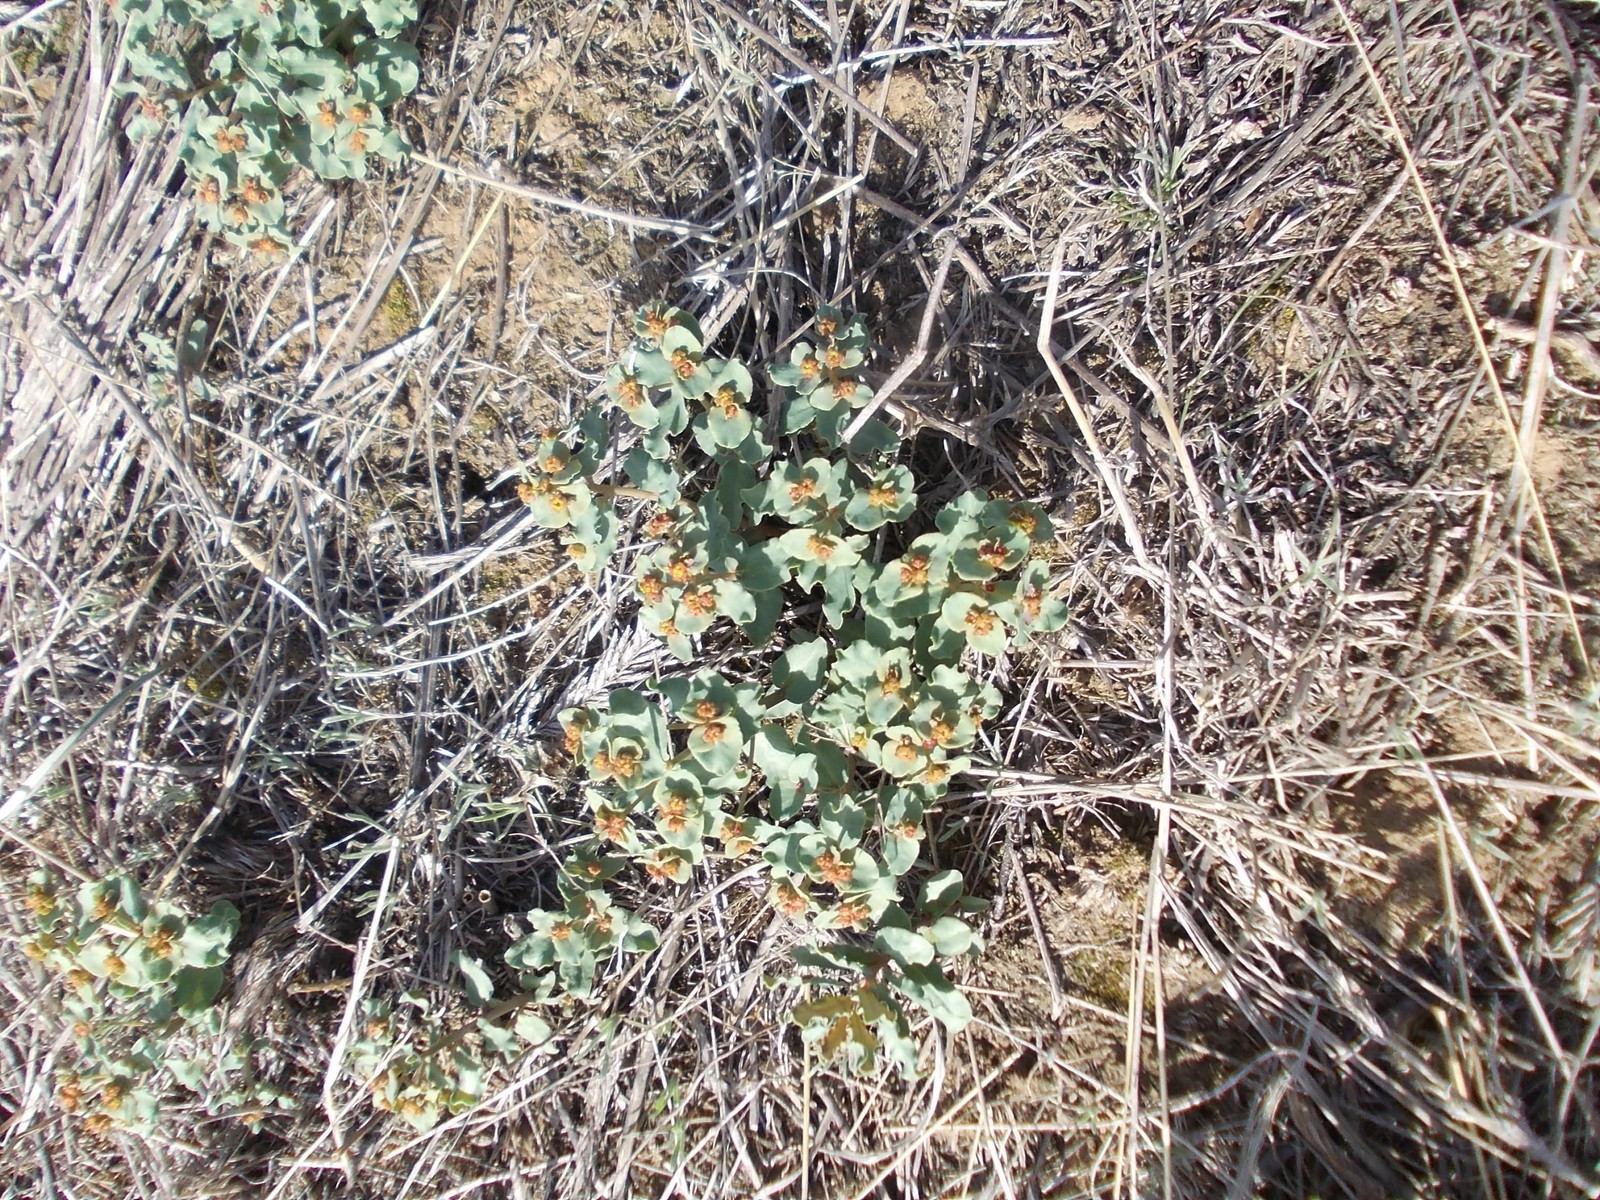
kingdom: Plantae
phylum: Tracheophyta
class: Magnoliopsida
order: Malpighiales
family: Euphorbiaceae
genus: Euphorbia
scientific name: Euphorbia undulata
